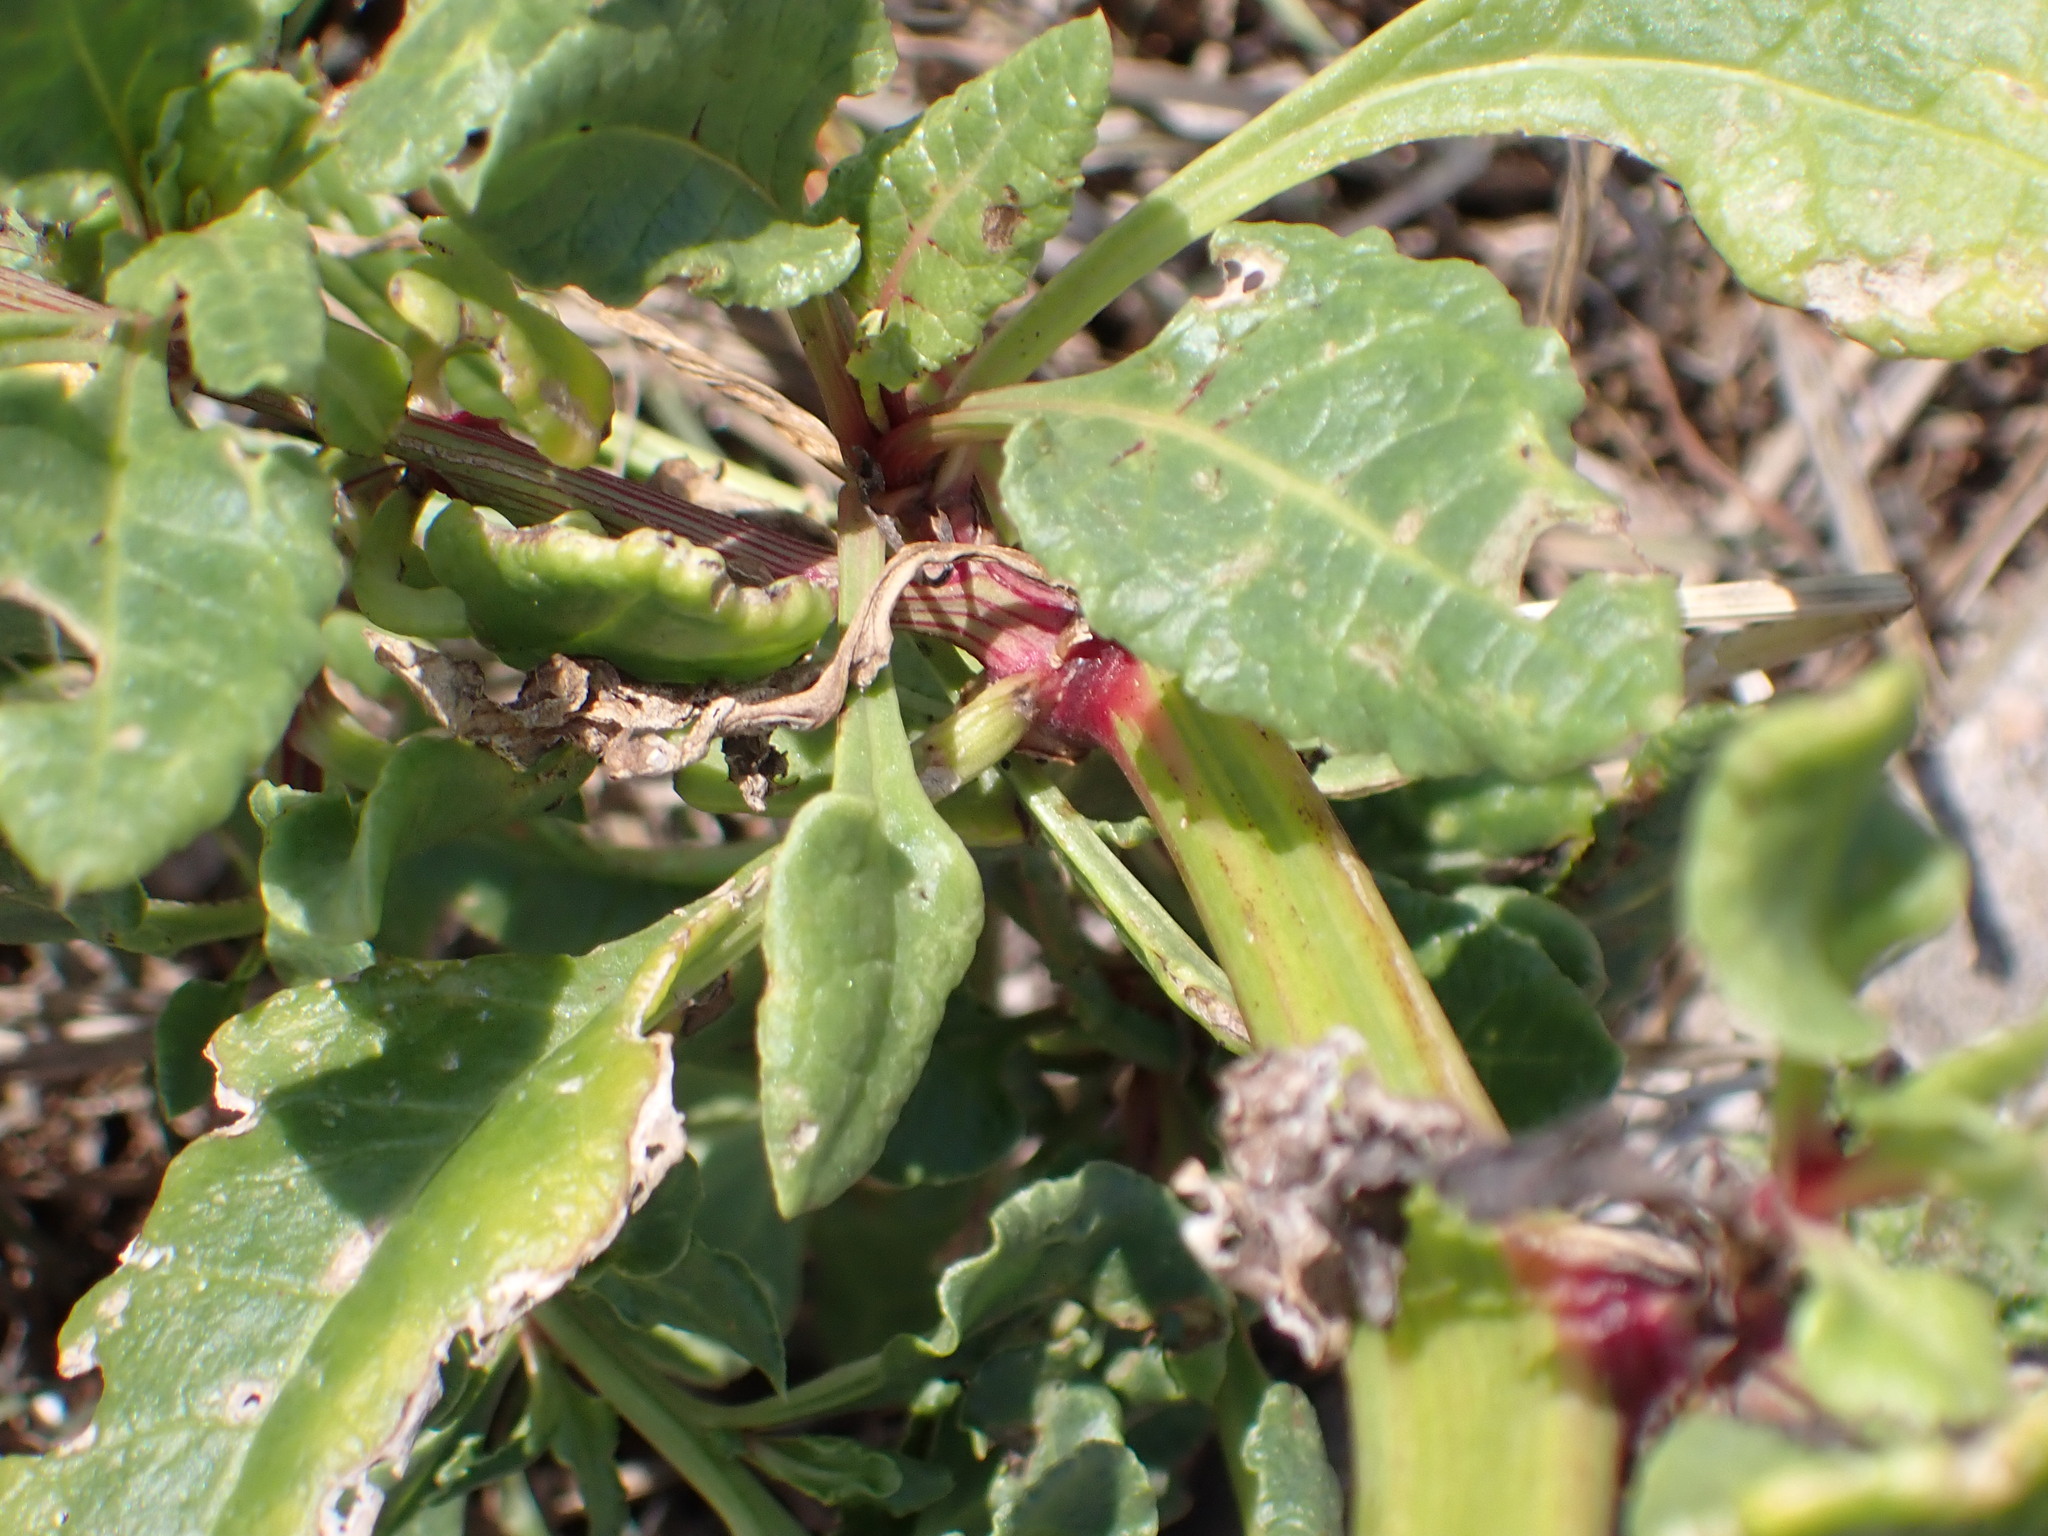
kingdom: Plantae
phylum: Tracheophyta
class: Magnoliopsida
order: Caryophyllales
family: Amaranthaceae
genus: Beta
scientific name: Beta vulgaris
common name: Beet
